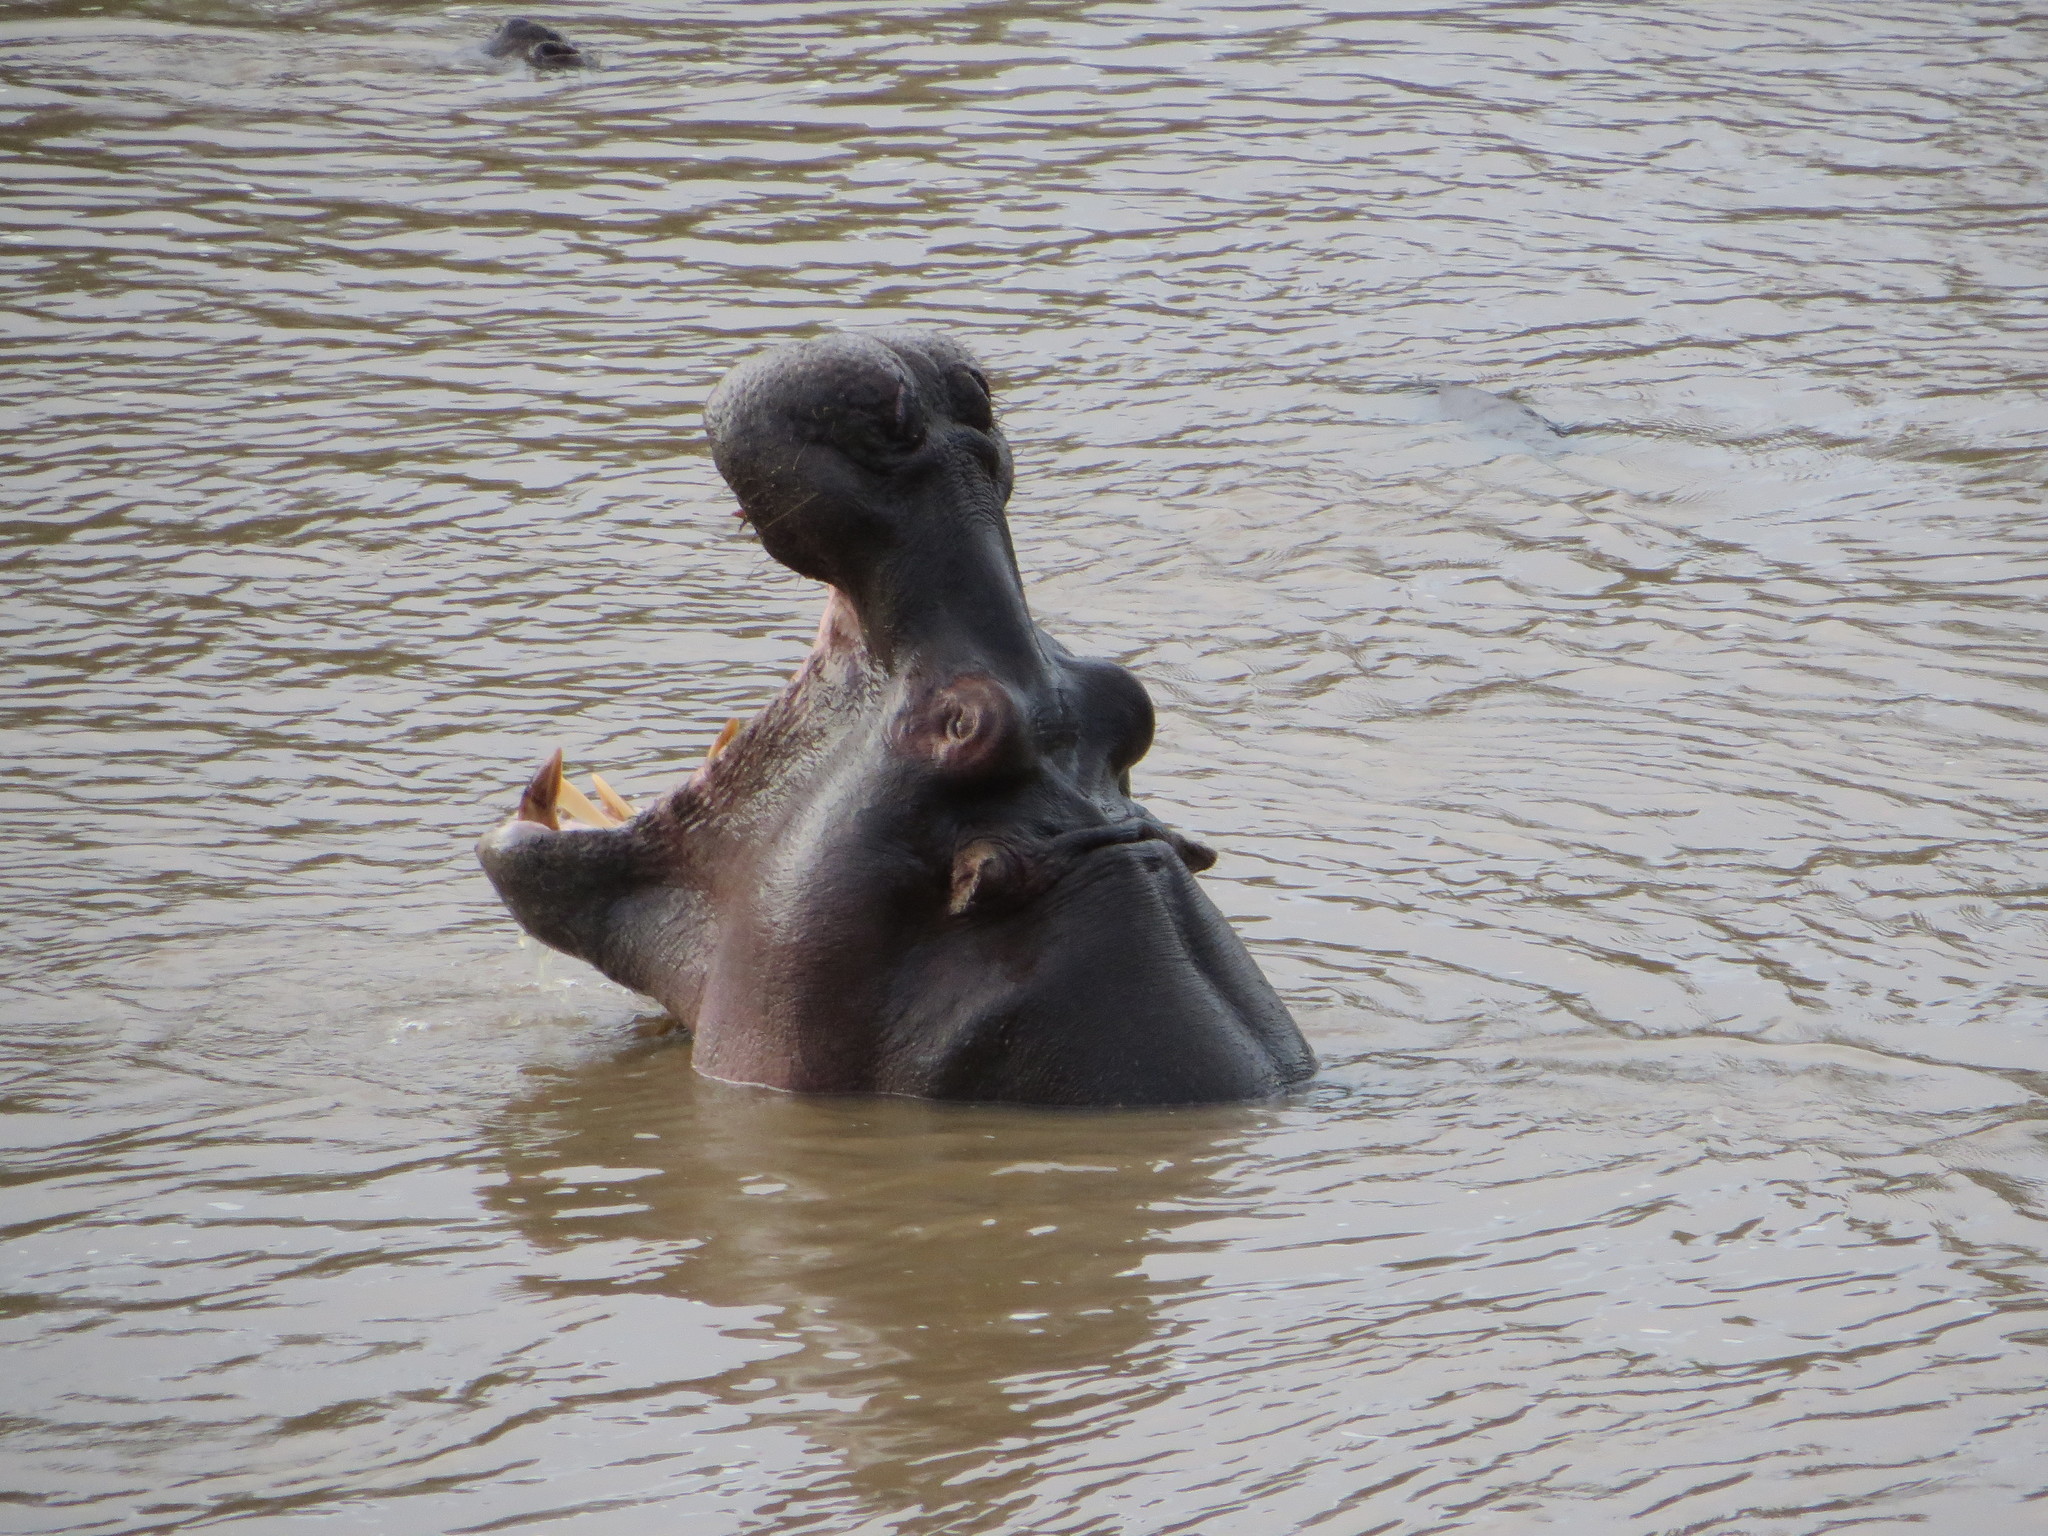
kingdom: Animalia
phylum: Chordata
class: Mammalia
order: Artiodactyla
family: Hippopotamidae
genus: Hippopotamus
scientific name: Hippopotamus amphibius
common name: Common hippopotamus
